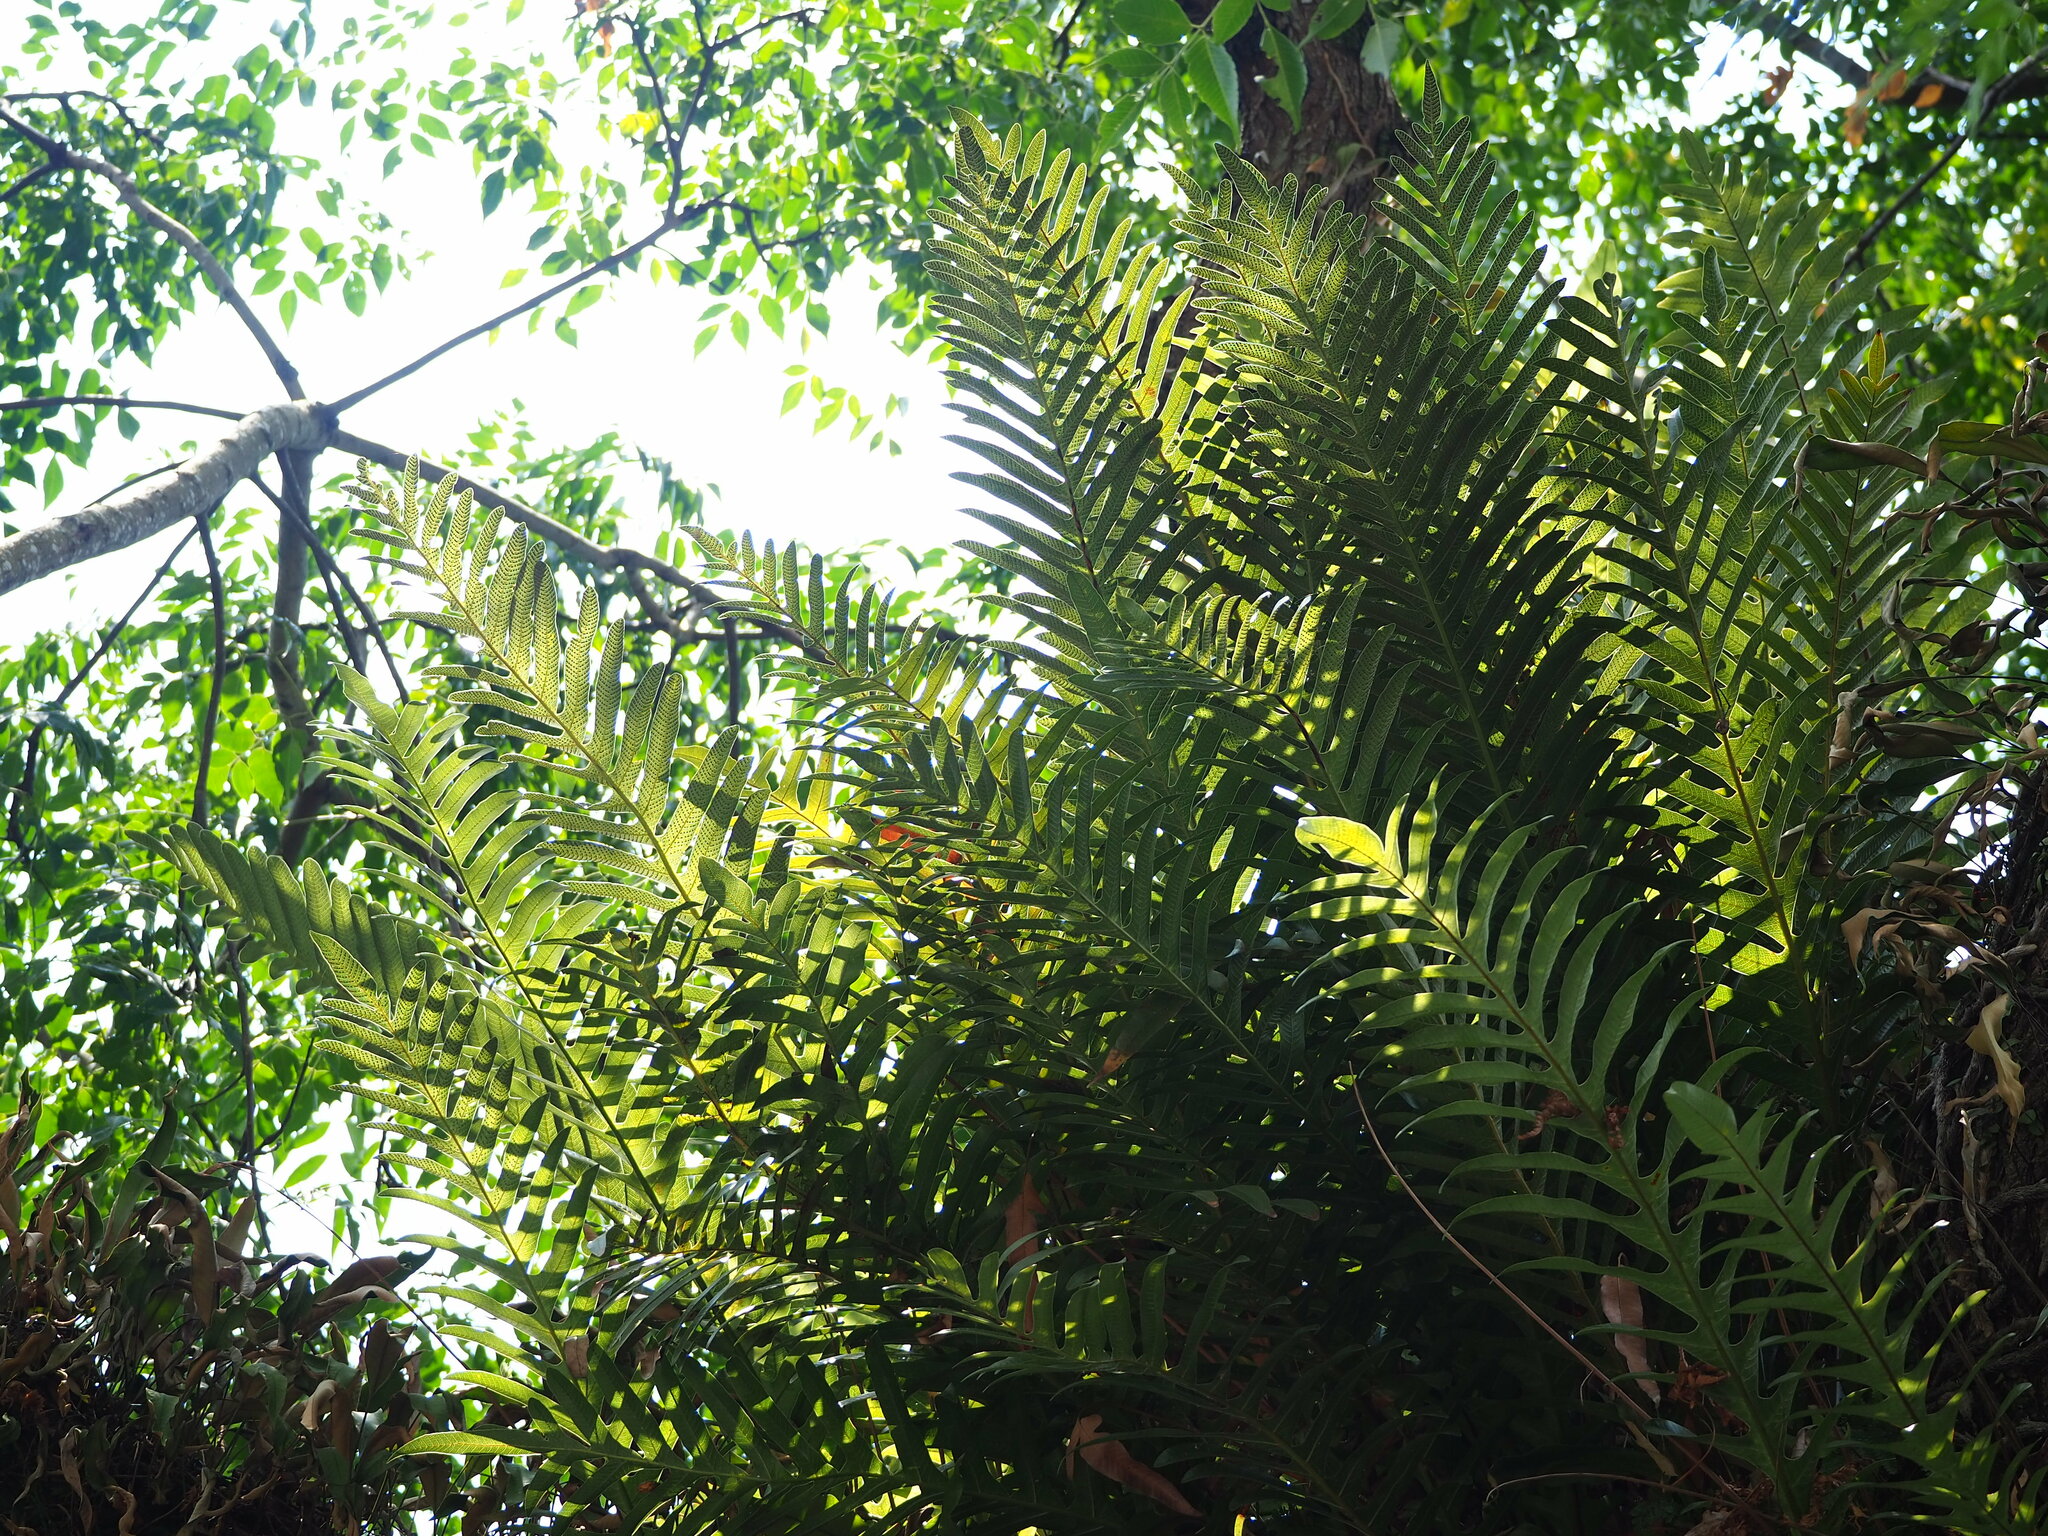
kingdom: Plantae
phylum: Tracheophyta
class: Polypodiopsida
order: Polypodiales
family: Polypodiaceae
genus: Drynaria
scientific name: Drynaria coronans
